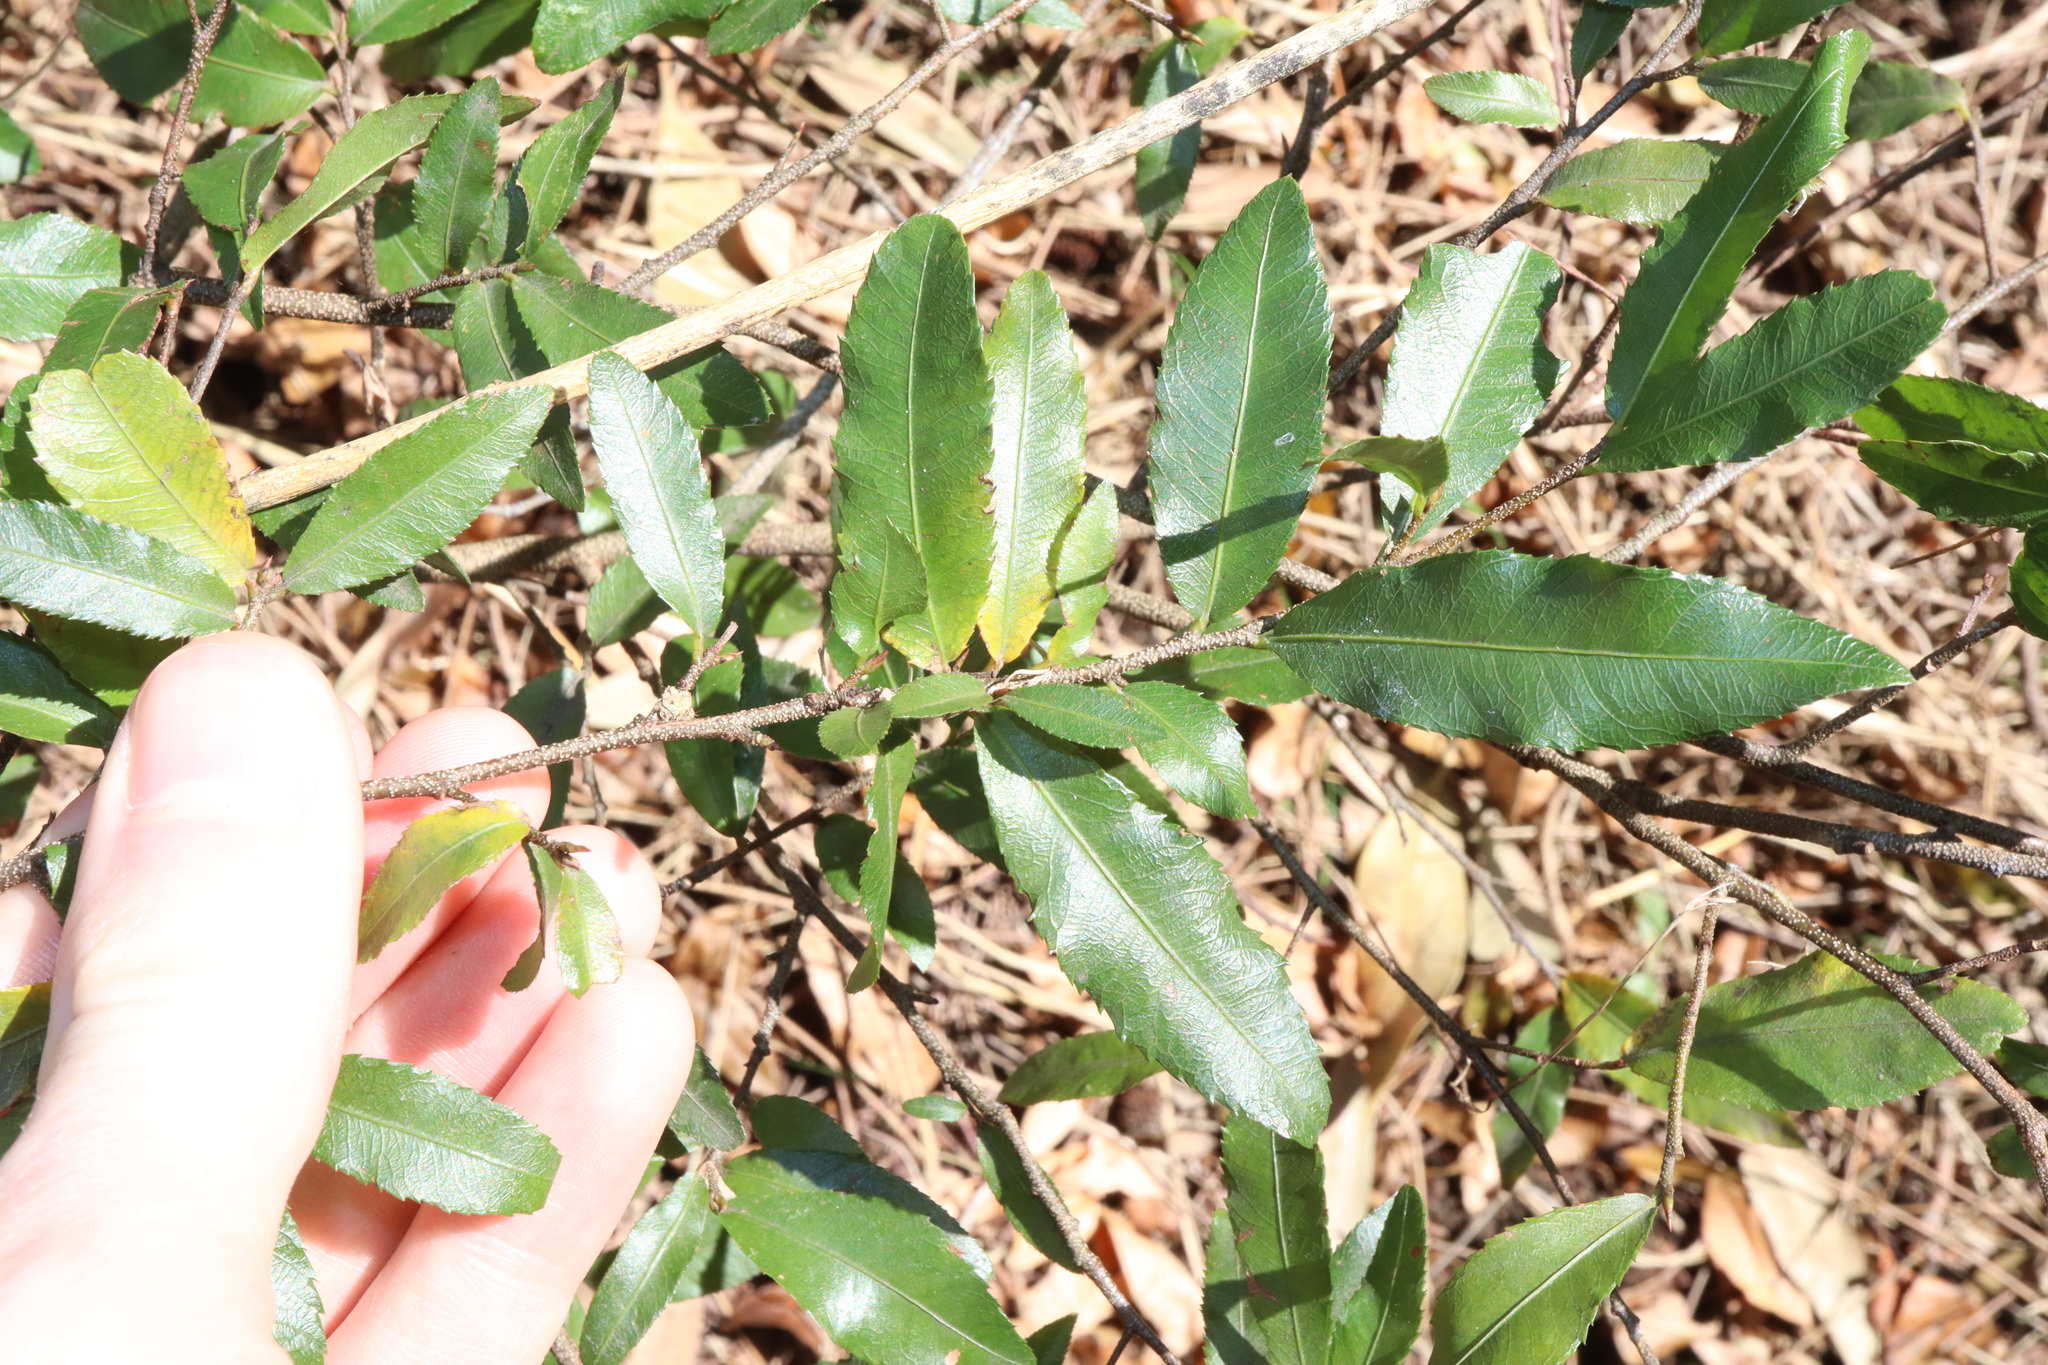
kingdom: Plantae
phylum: Tracheophyta
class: Magnoliopsida
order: Malpighiales
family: Ochnaceae
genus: Ochna
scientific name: Ochna serrulata
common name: Mickey mouse plant
